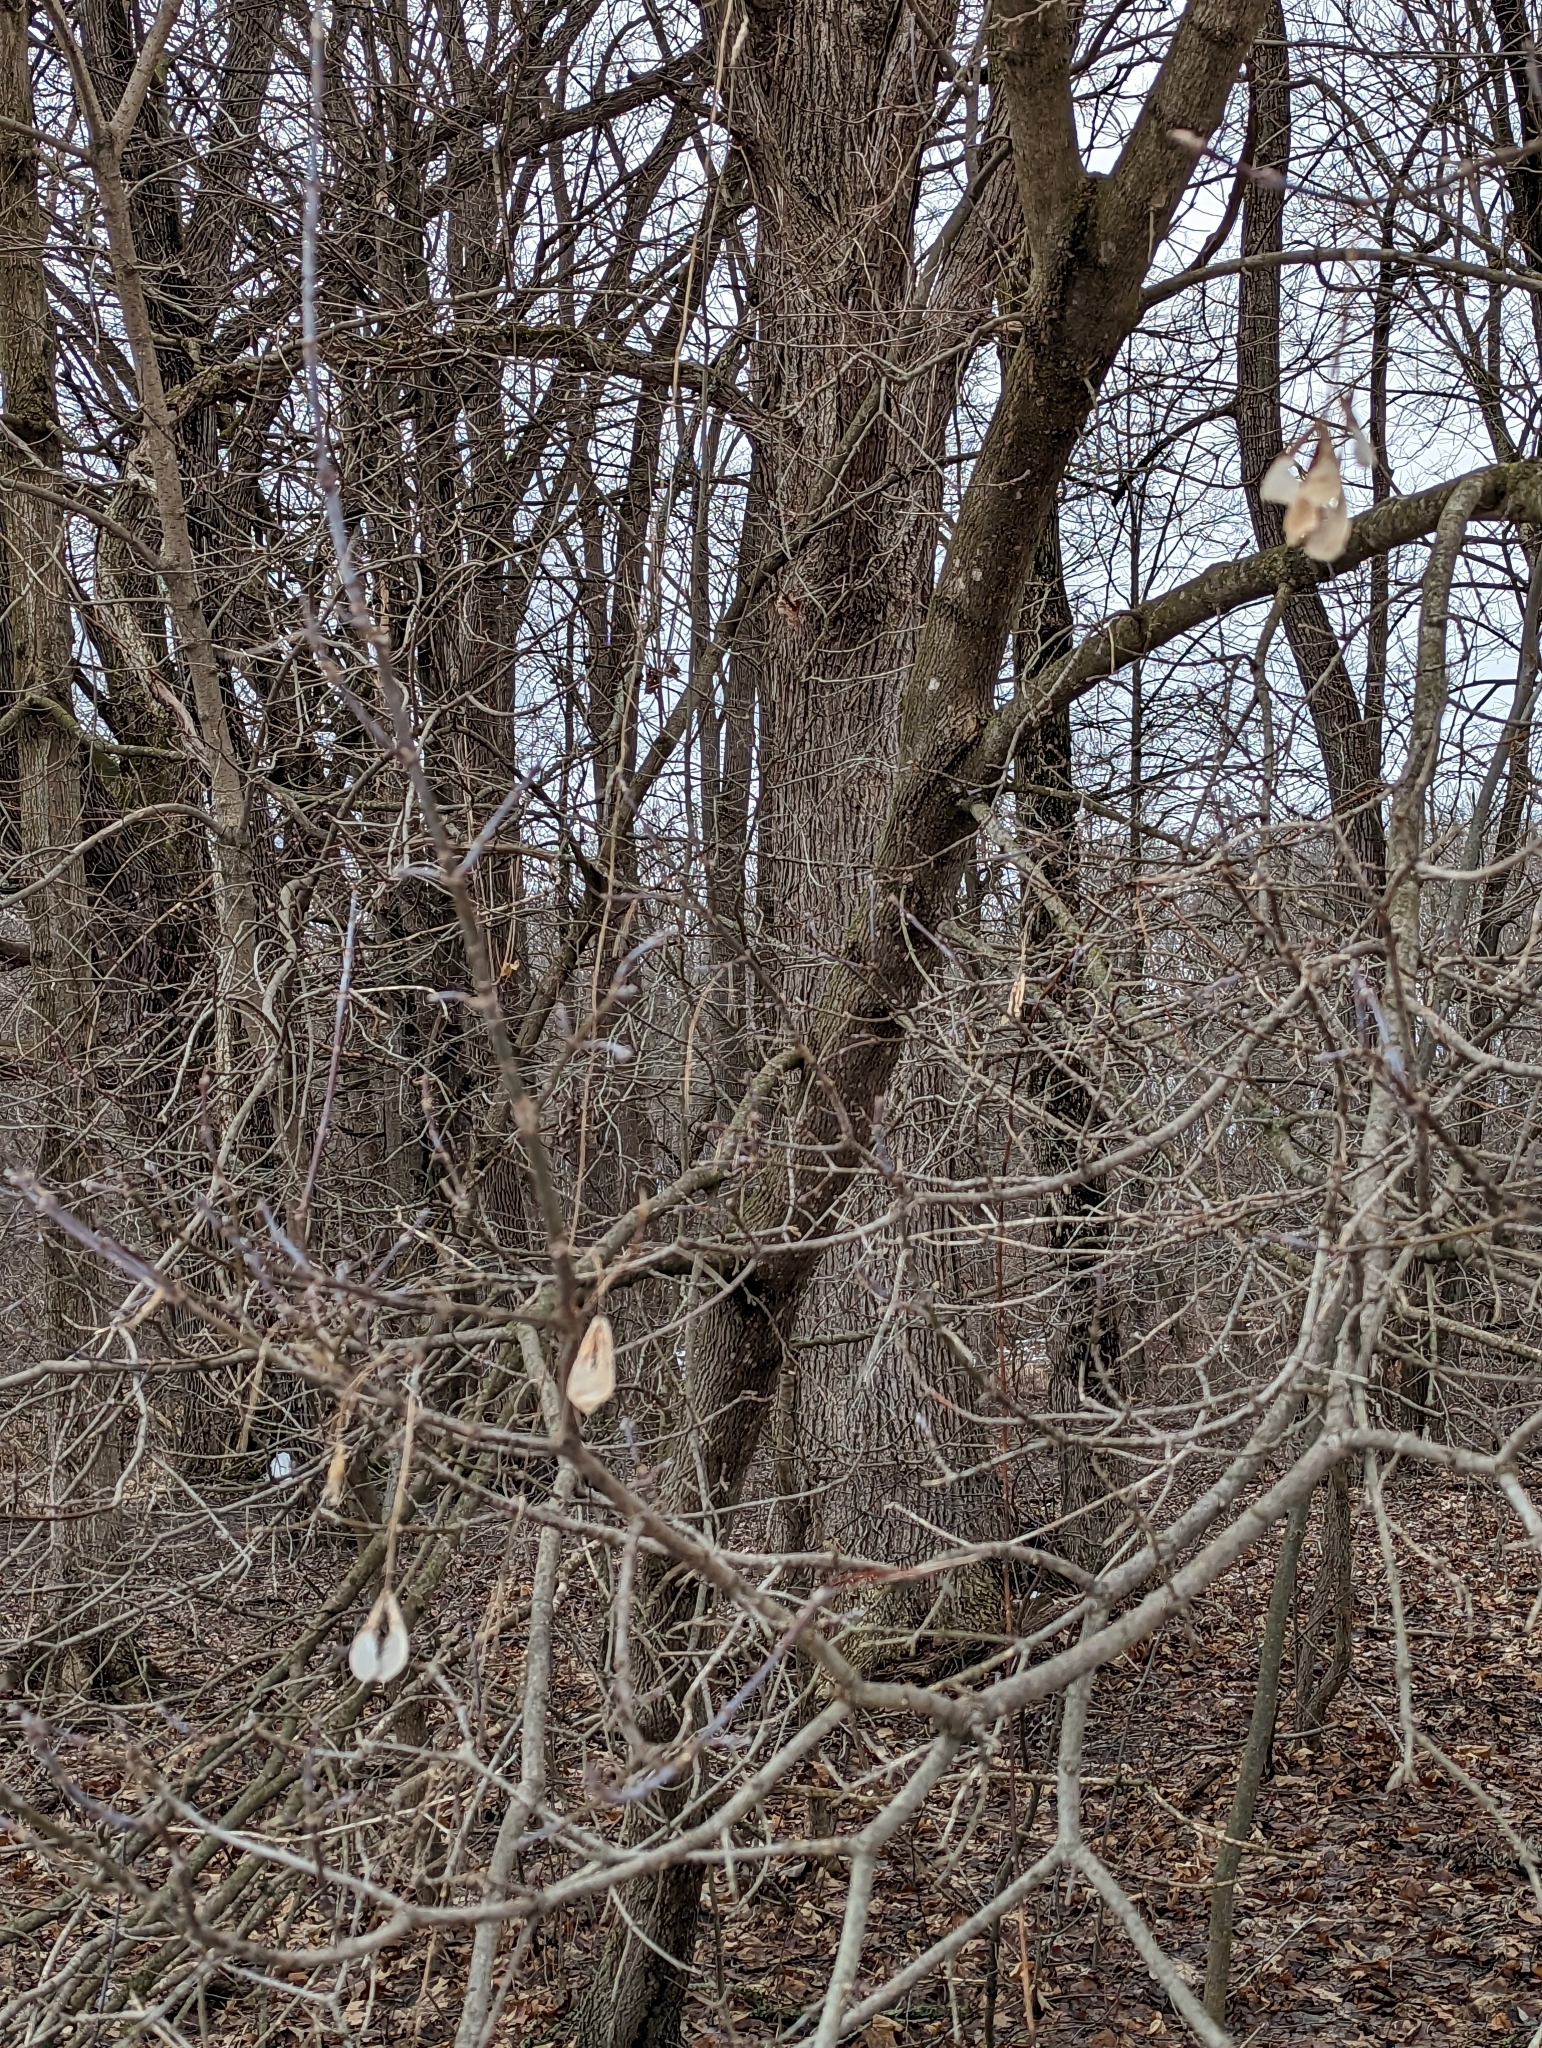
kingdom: Plantae
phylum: Tracheophyta
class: Magnoliopsida
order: Sapindales
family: Sapindaceae
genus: Acer
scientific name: Acer negundo
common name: Ashleaf maple
